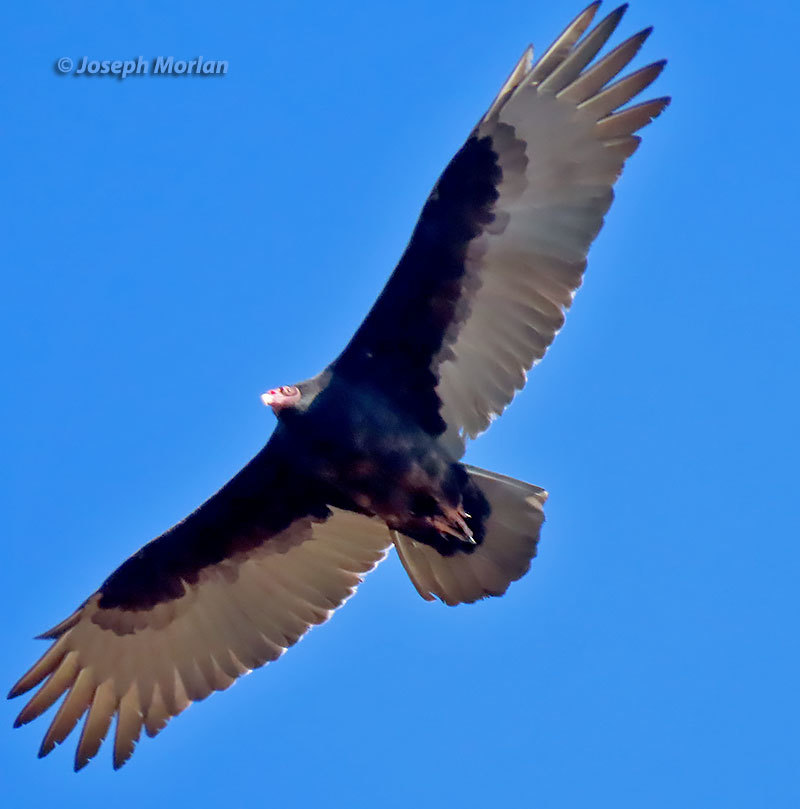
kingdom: Animalia
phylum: Chordata
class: Aves
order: Accipitriformes
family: Cathartidae
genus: Cathartes
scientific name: Cathartes aura
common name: Turkey vulture
